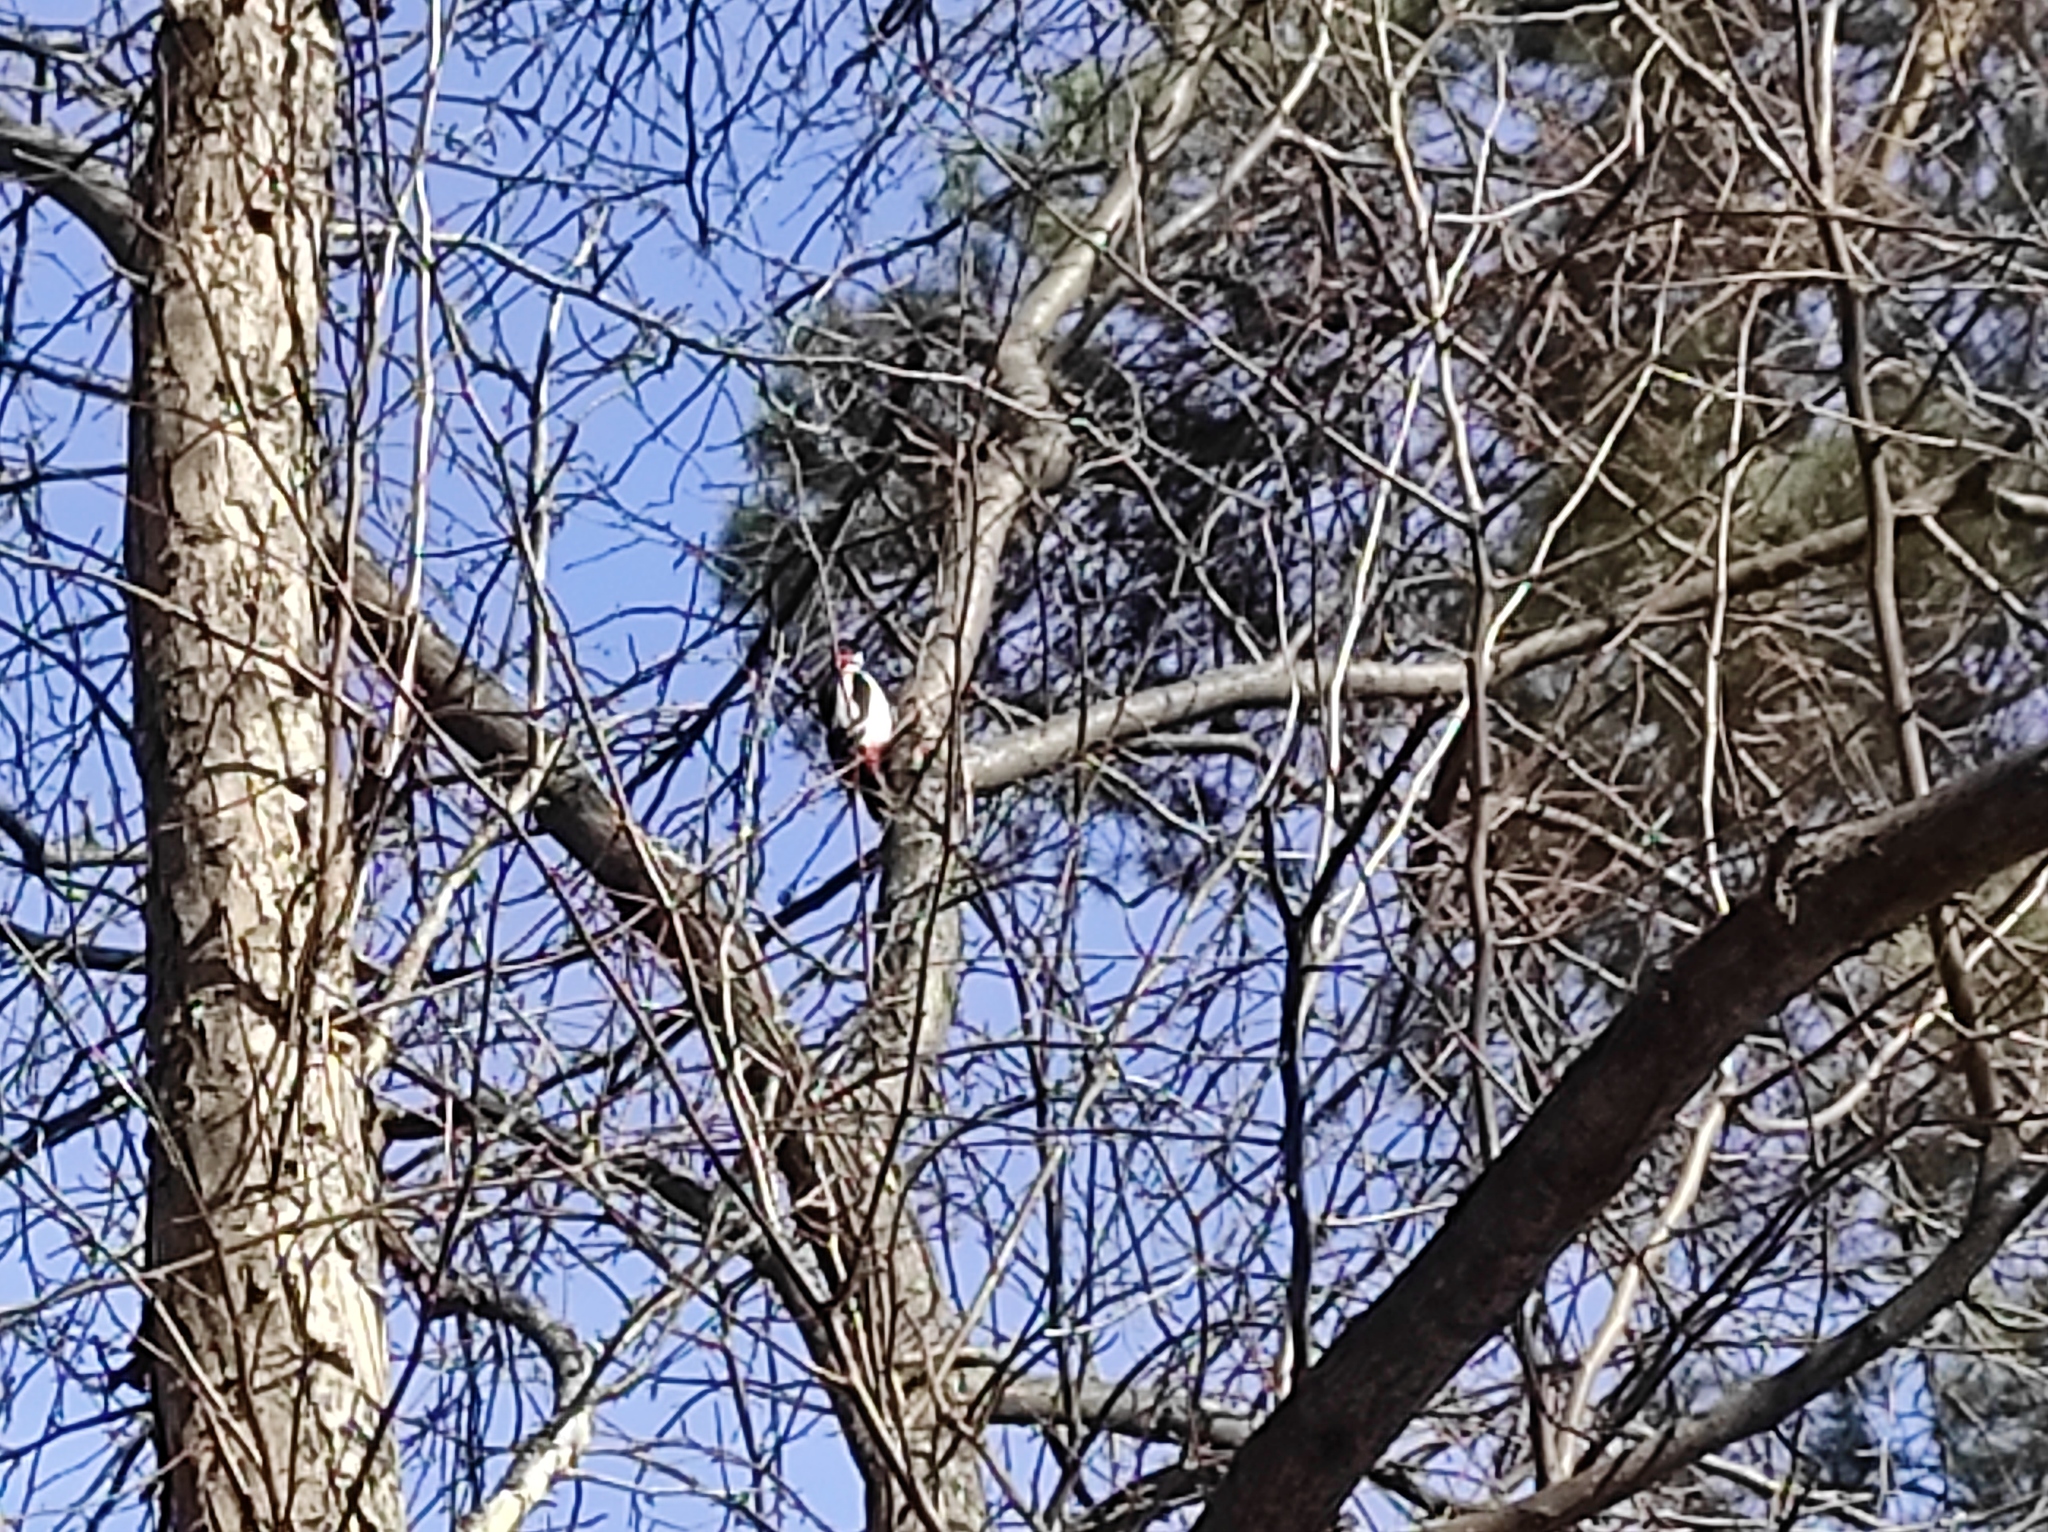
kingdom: Animalia
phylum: Chordata
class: Aves
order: Piciformes
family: Picidae
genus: Dendrocopos
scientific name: Dendrocopos major
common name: Great spotted woodpecker
